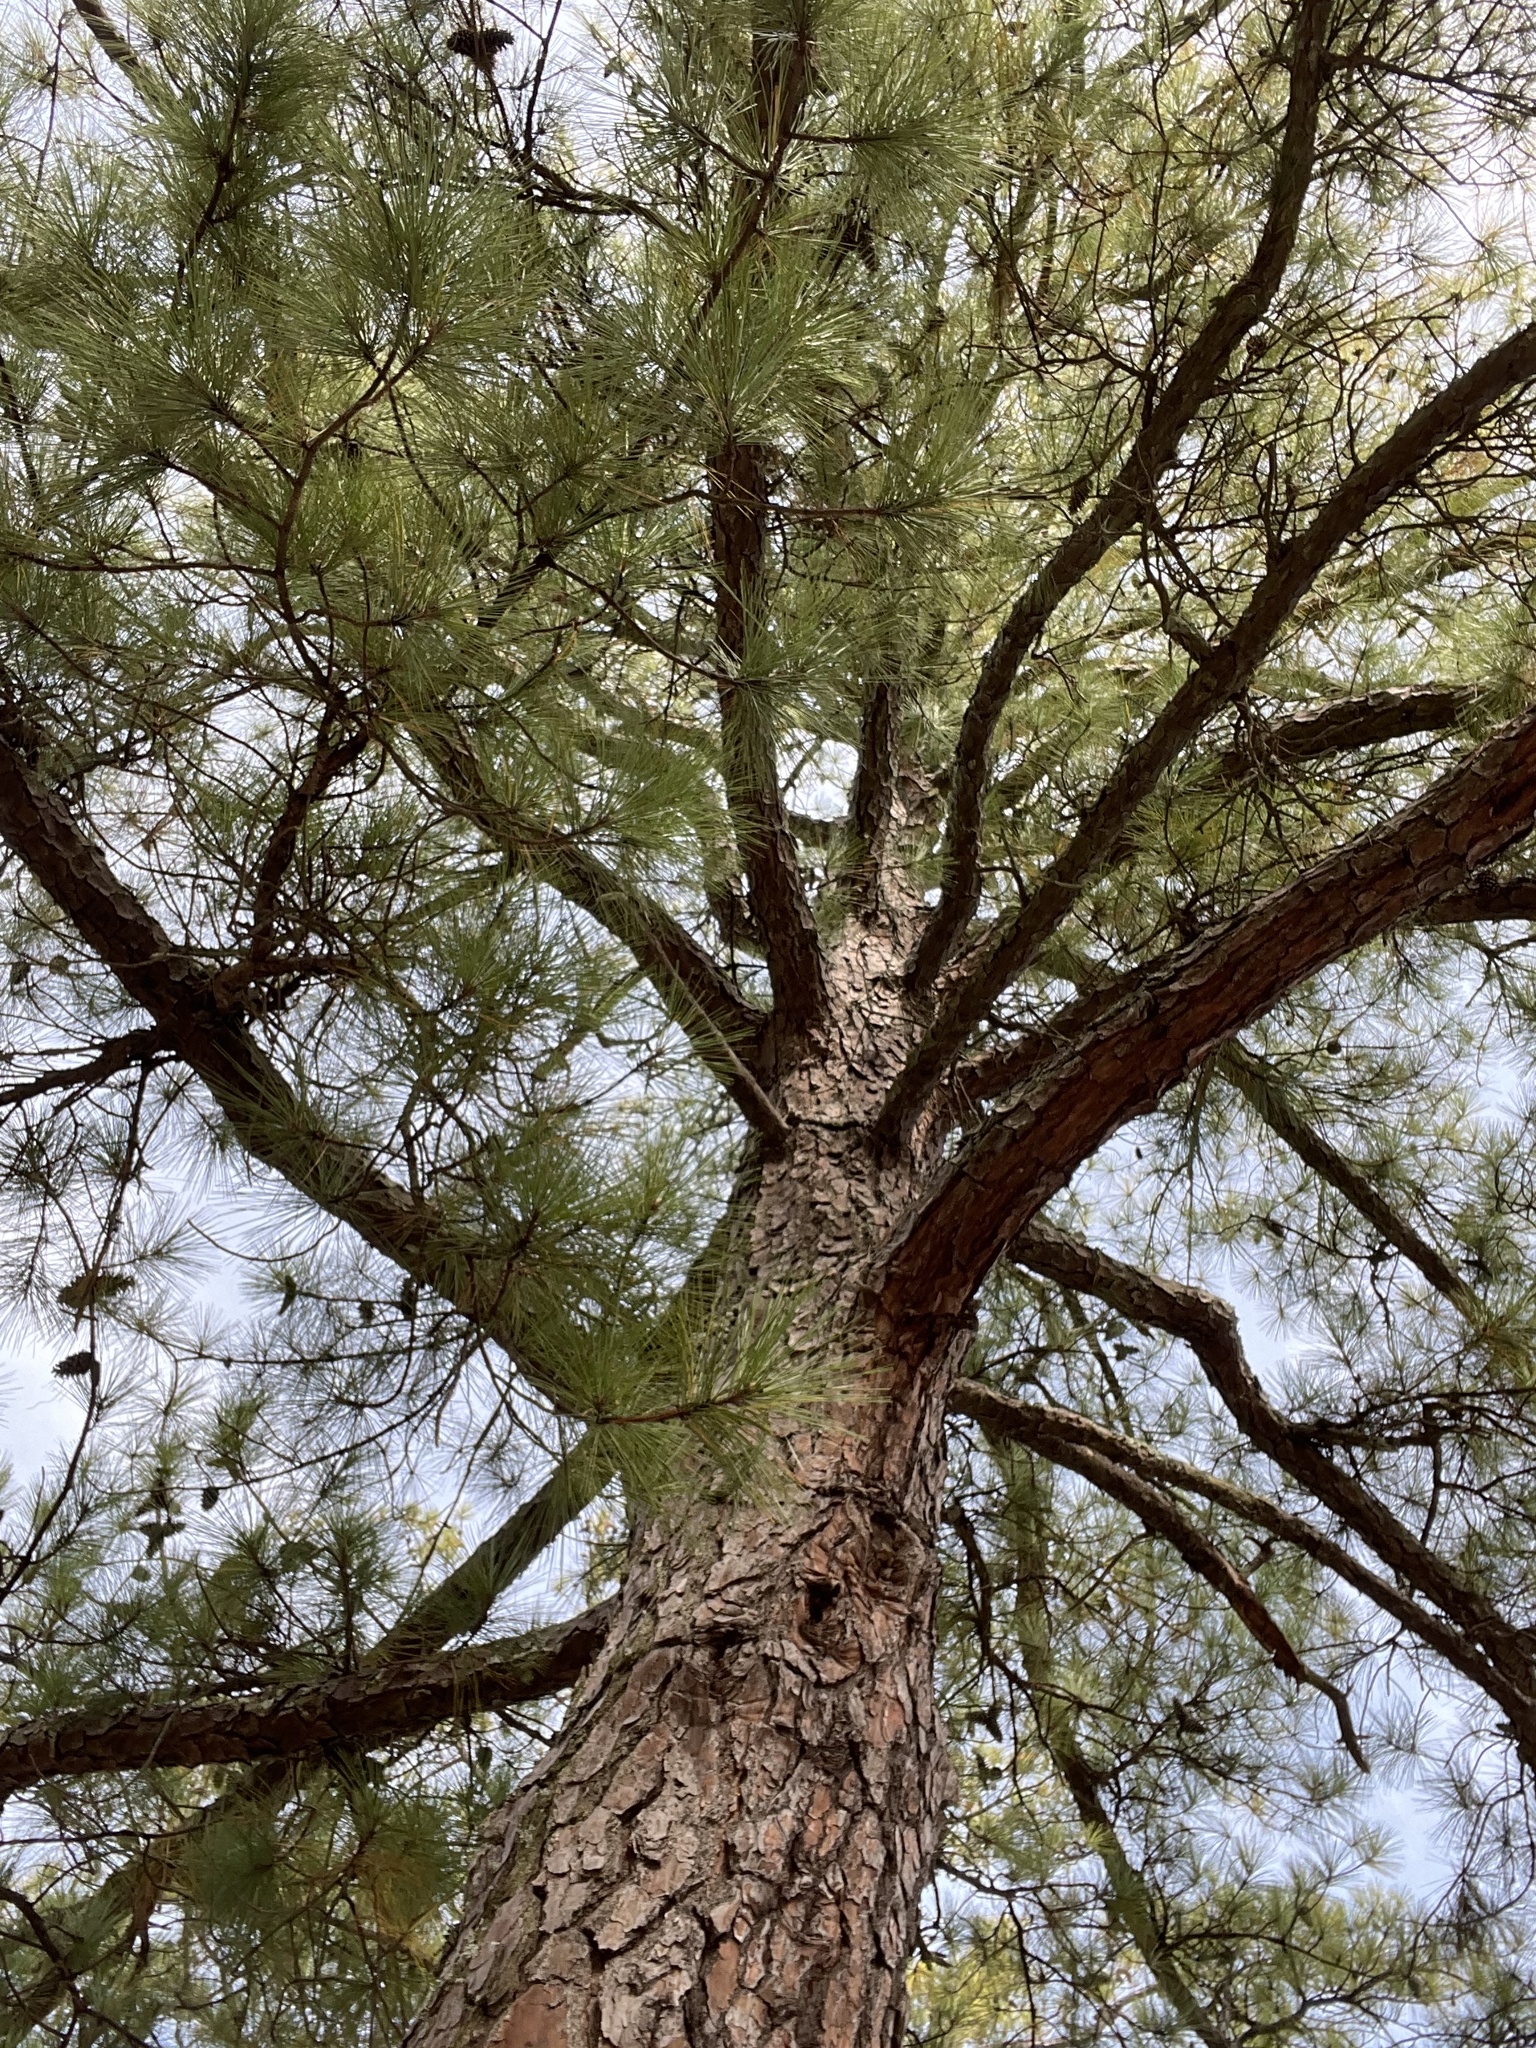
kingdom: Plantae
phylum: Tracheophyta
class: Pinopsida
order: Pinales
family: Pinaceae
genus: Pinus
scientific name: Pinus taeda
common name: Loblolly pine
